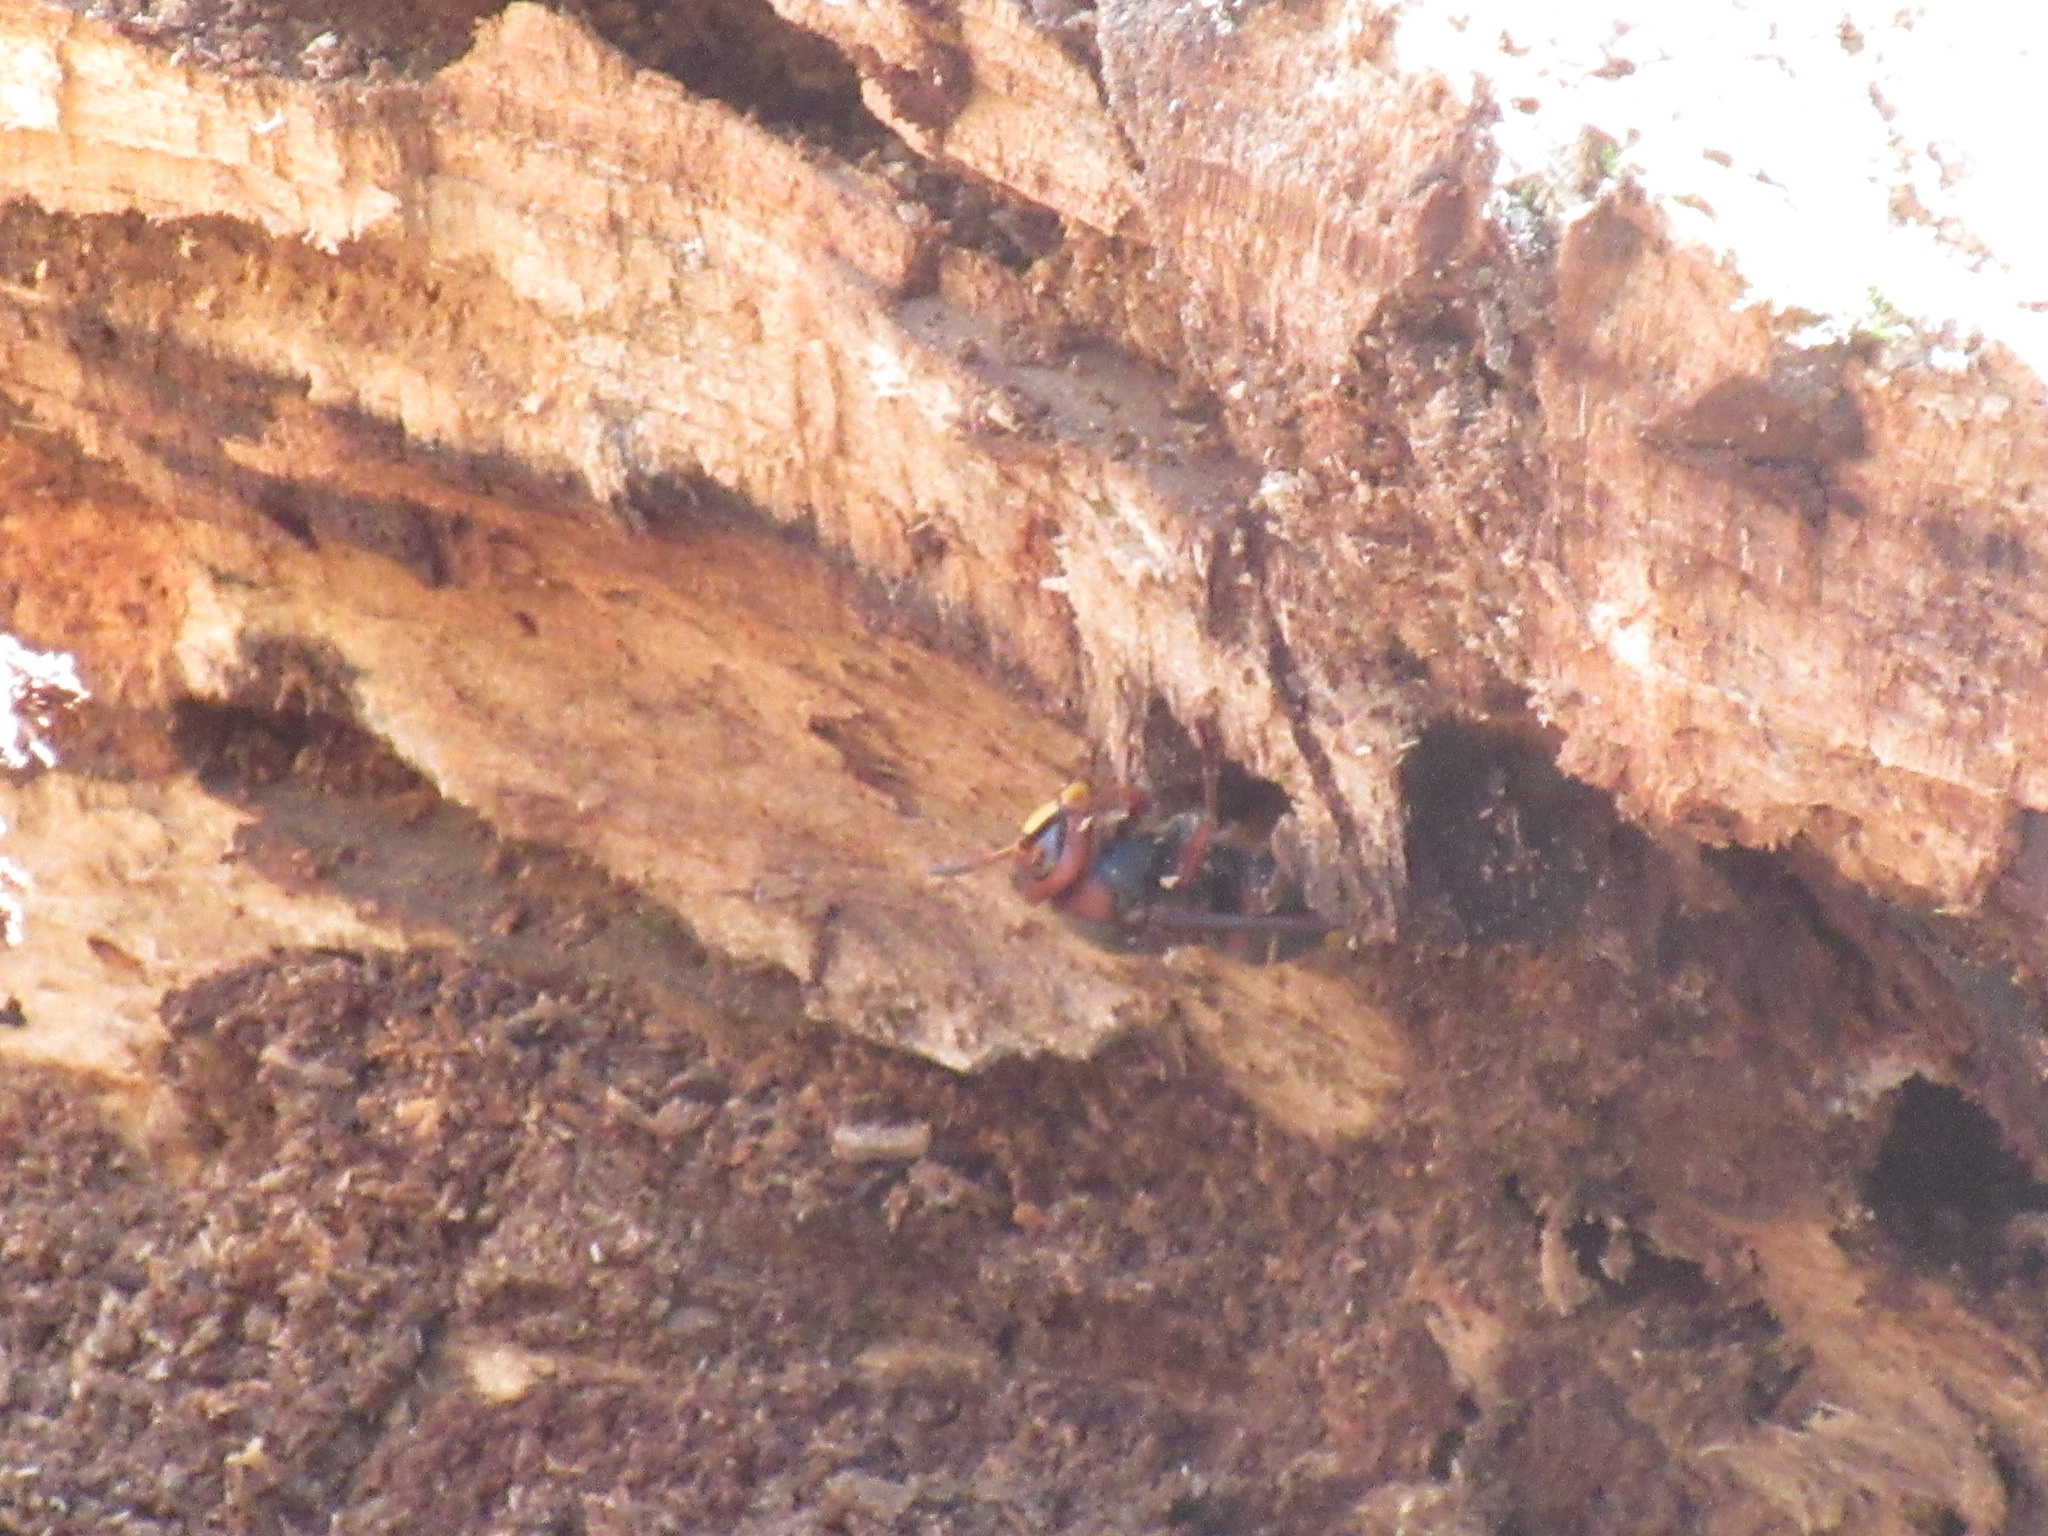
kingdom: Animalia
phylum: Arthropoda
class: Insecta
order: Hymenoptera
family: Vespidae
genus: Vespa
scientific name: Vespa crabro
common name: Hornet
